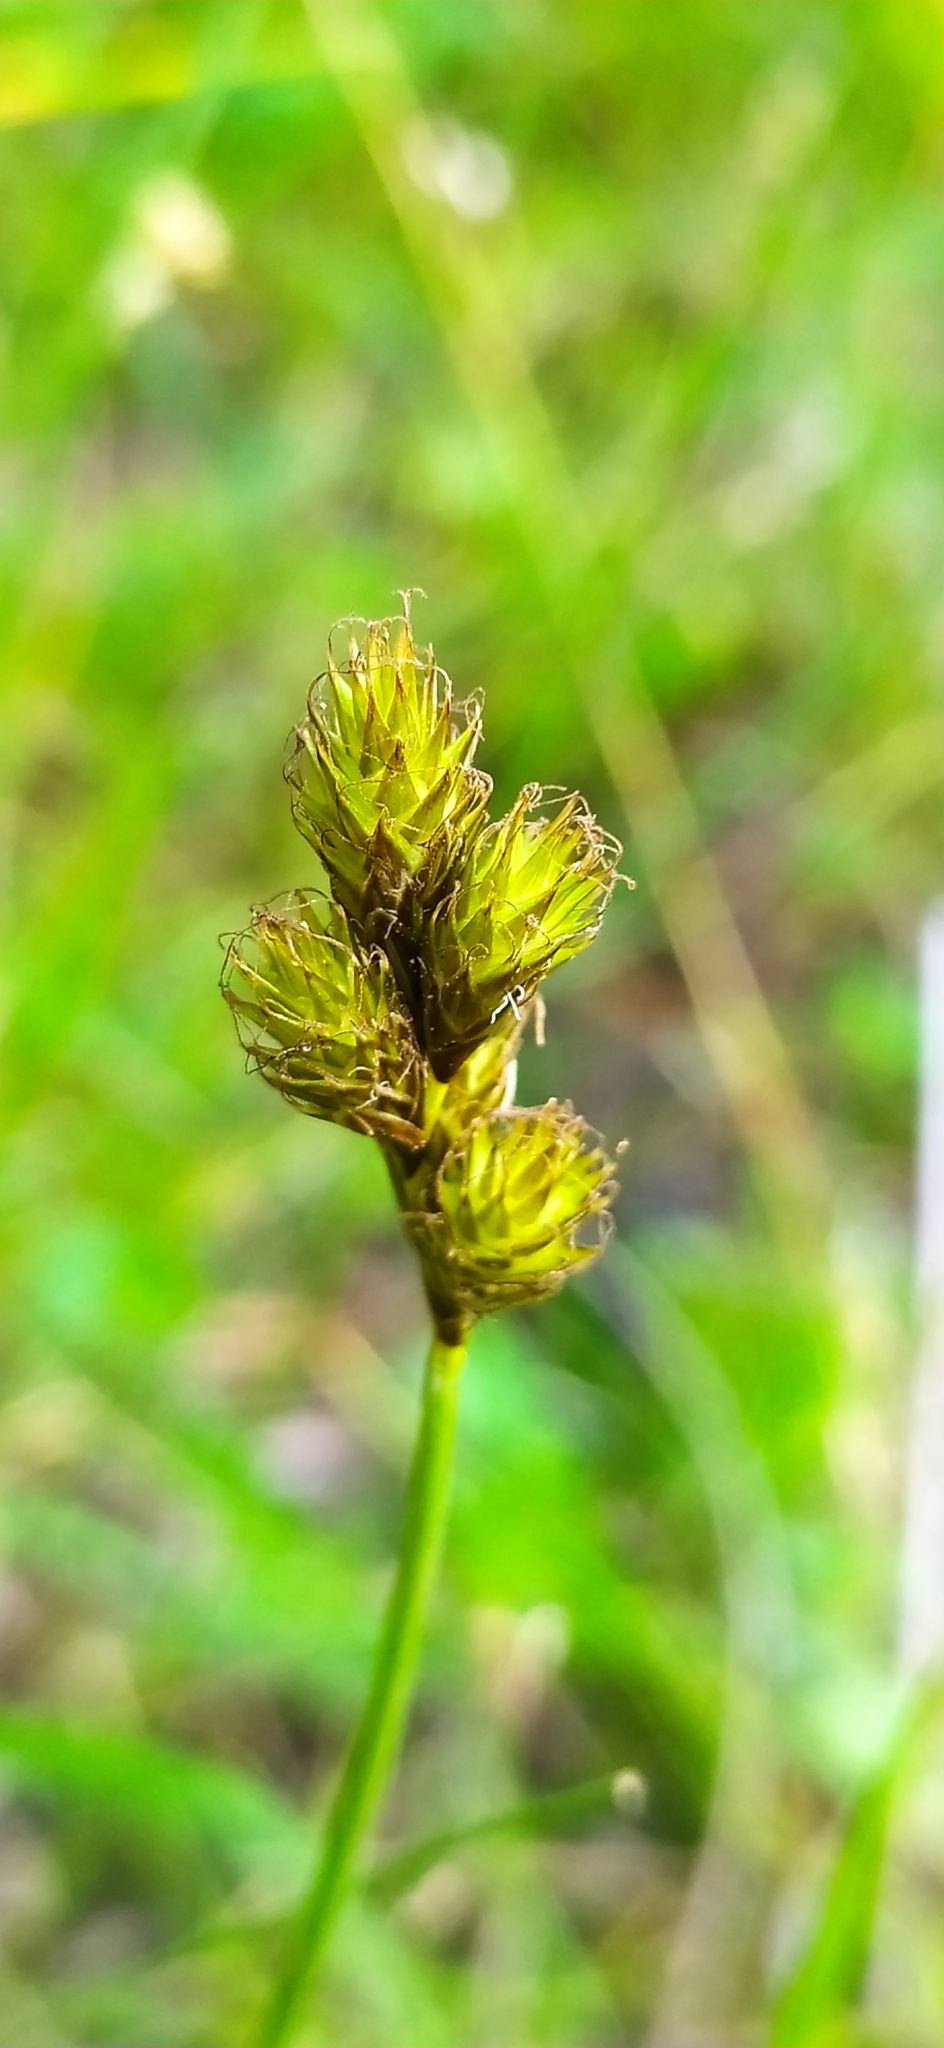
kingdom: Plantae
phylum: Tracheophyta
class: Liliopsida
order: Poales
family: Cyperaceae
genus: Carex
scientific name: Carex leporina
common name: Oval sedge
